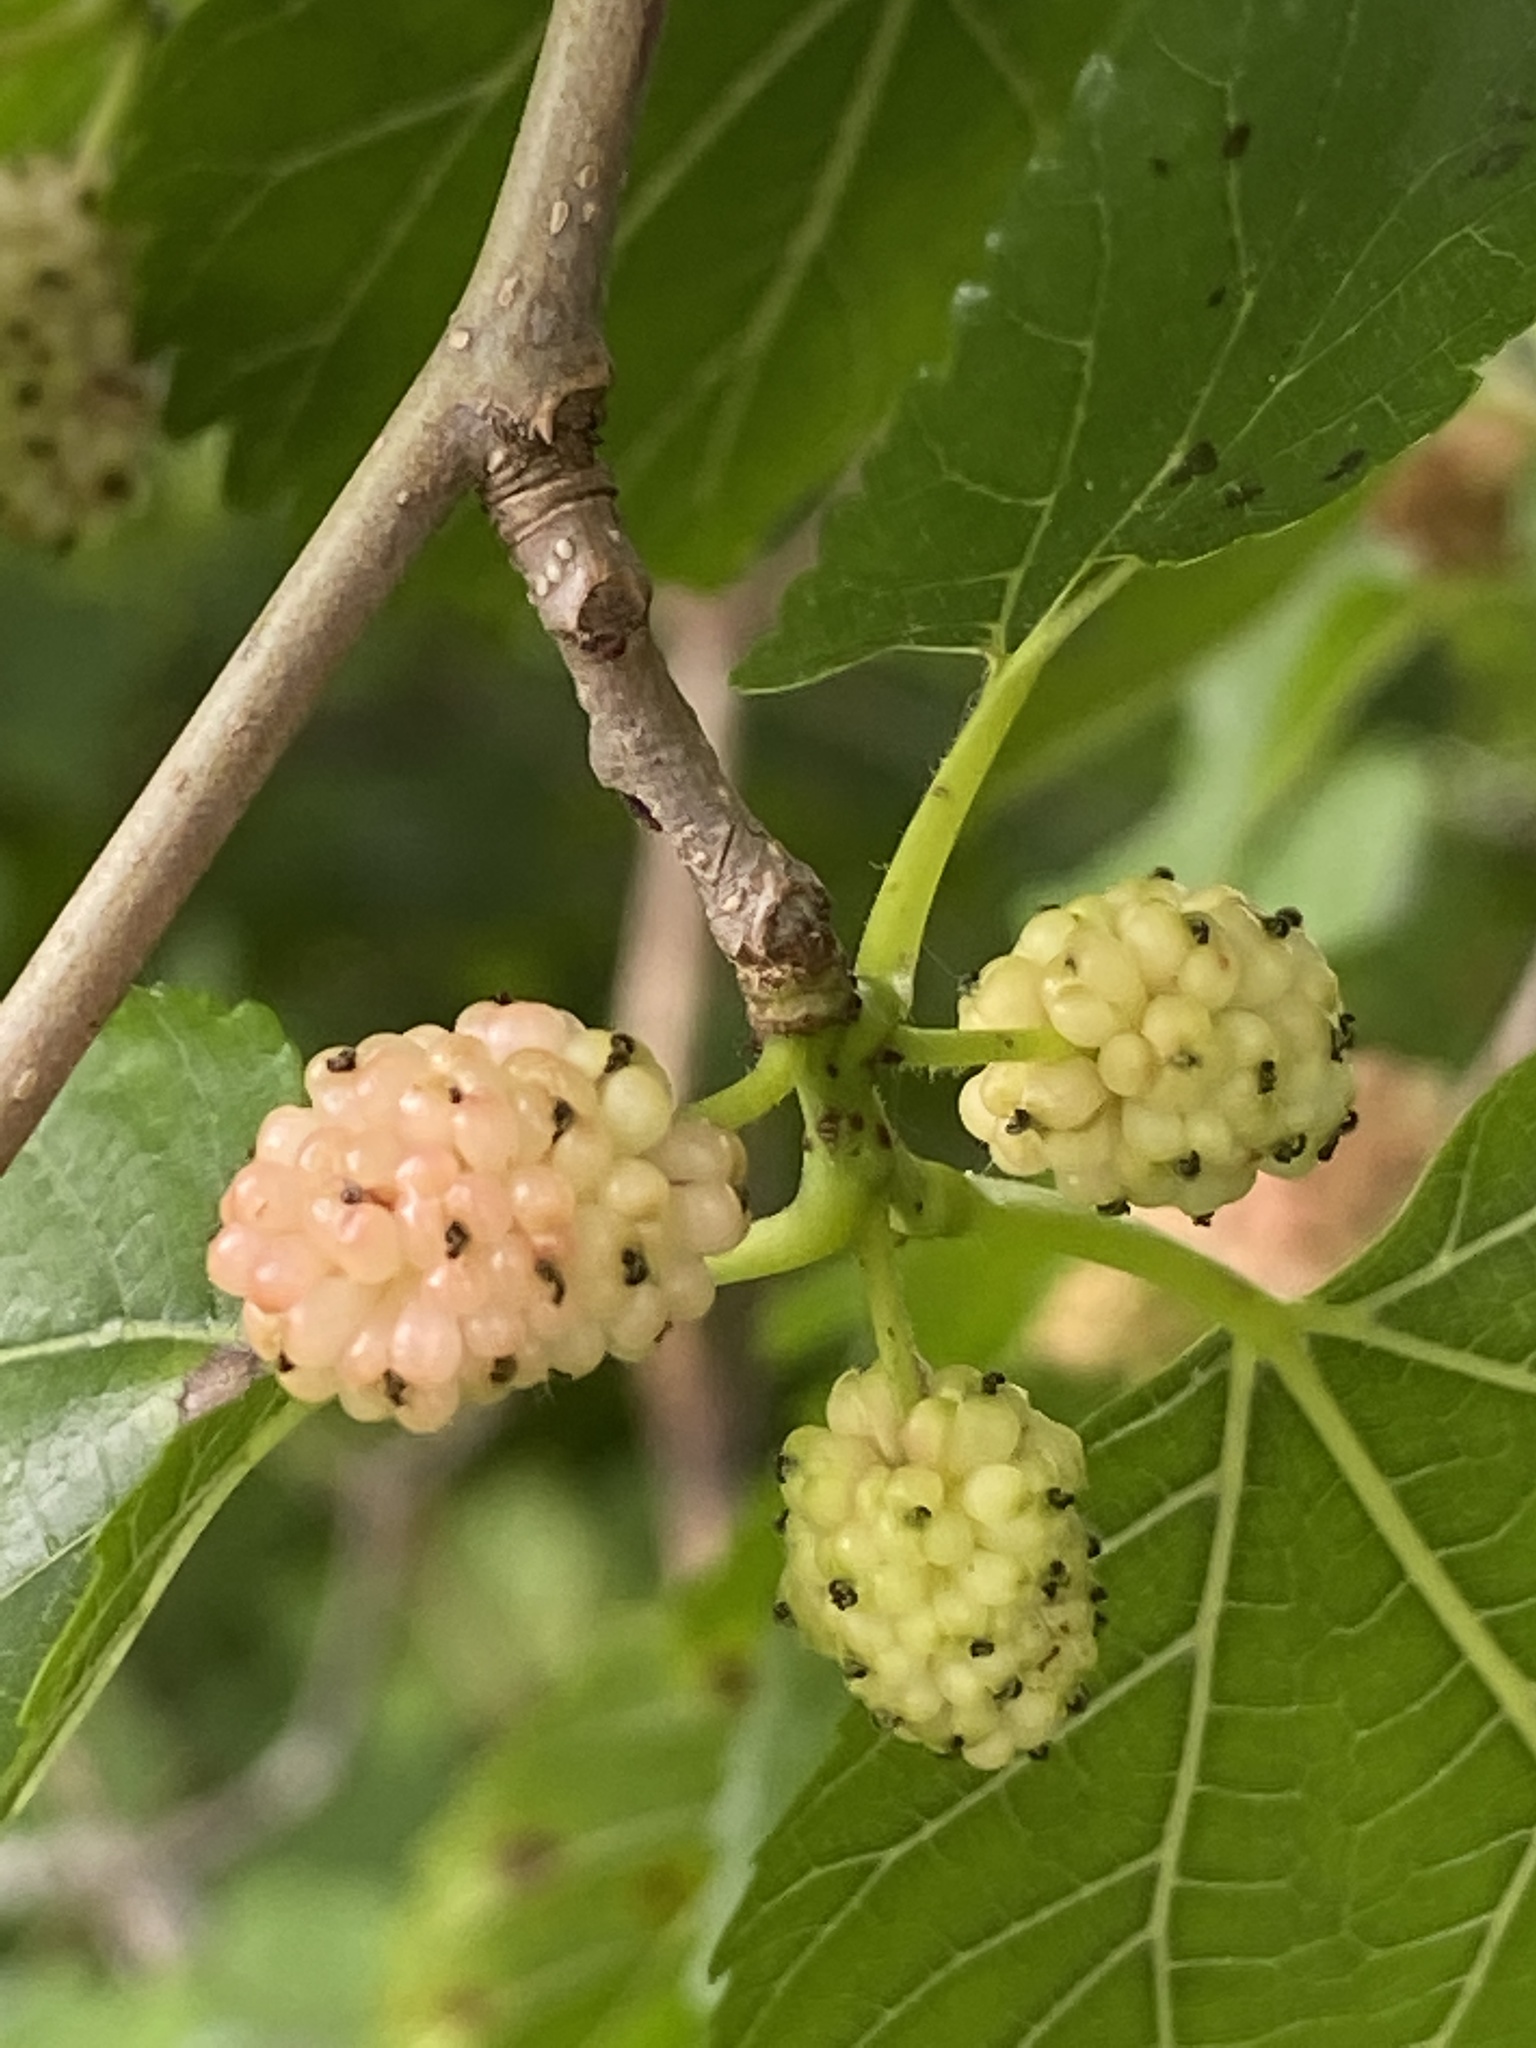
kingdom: Plantae
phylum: Tracheophyta
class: Magnoliopsida
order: Rosales
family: Moraceae
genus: Morus
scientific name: Morus alba
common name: White mulberry
